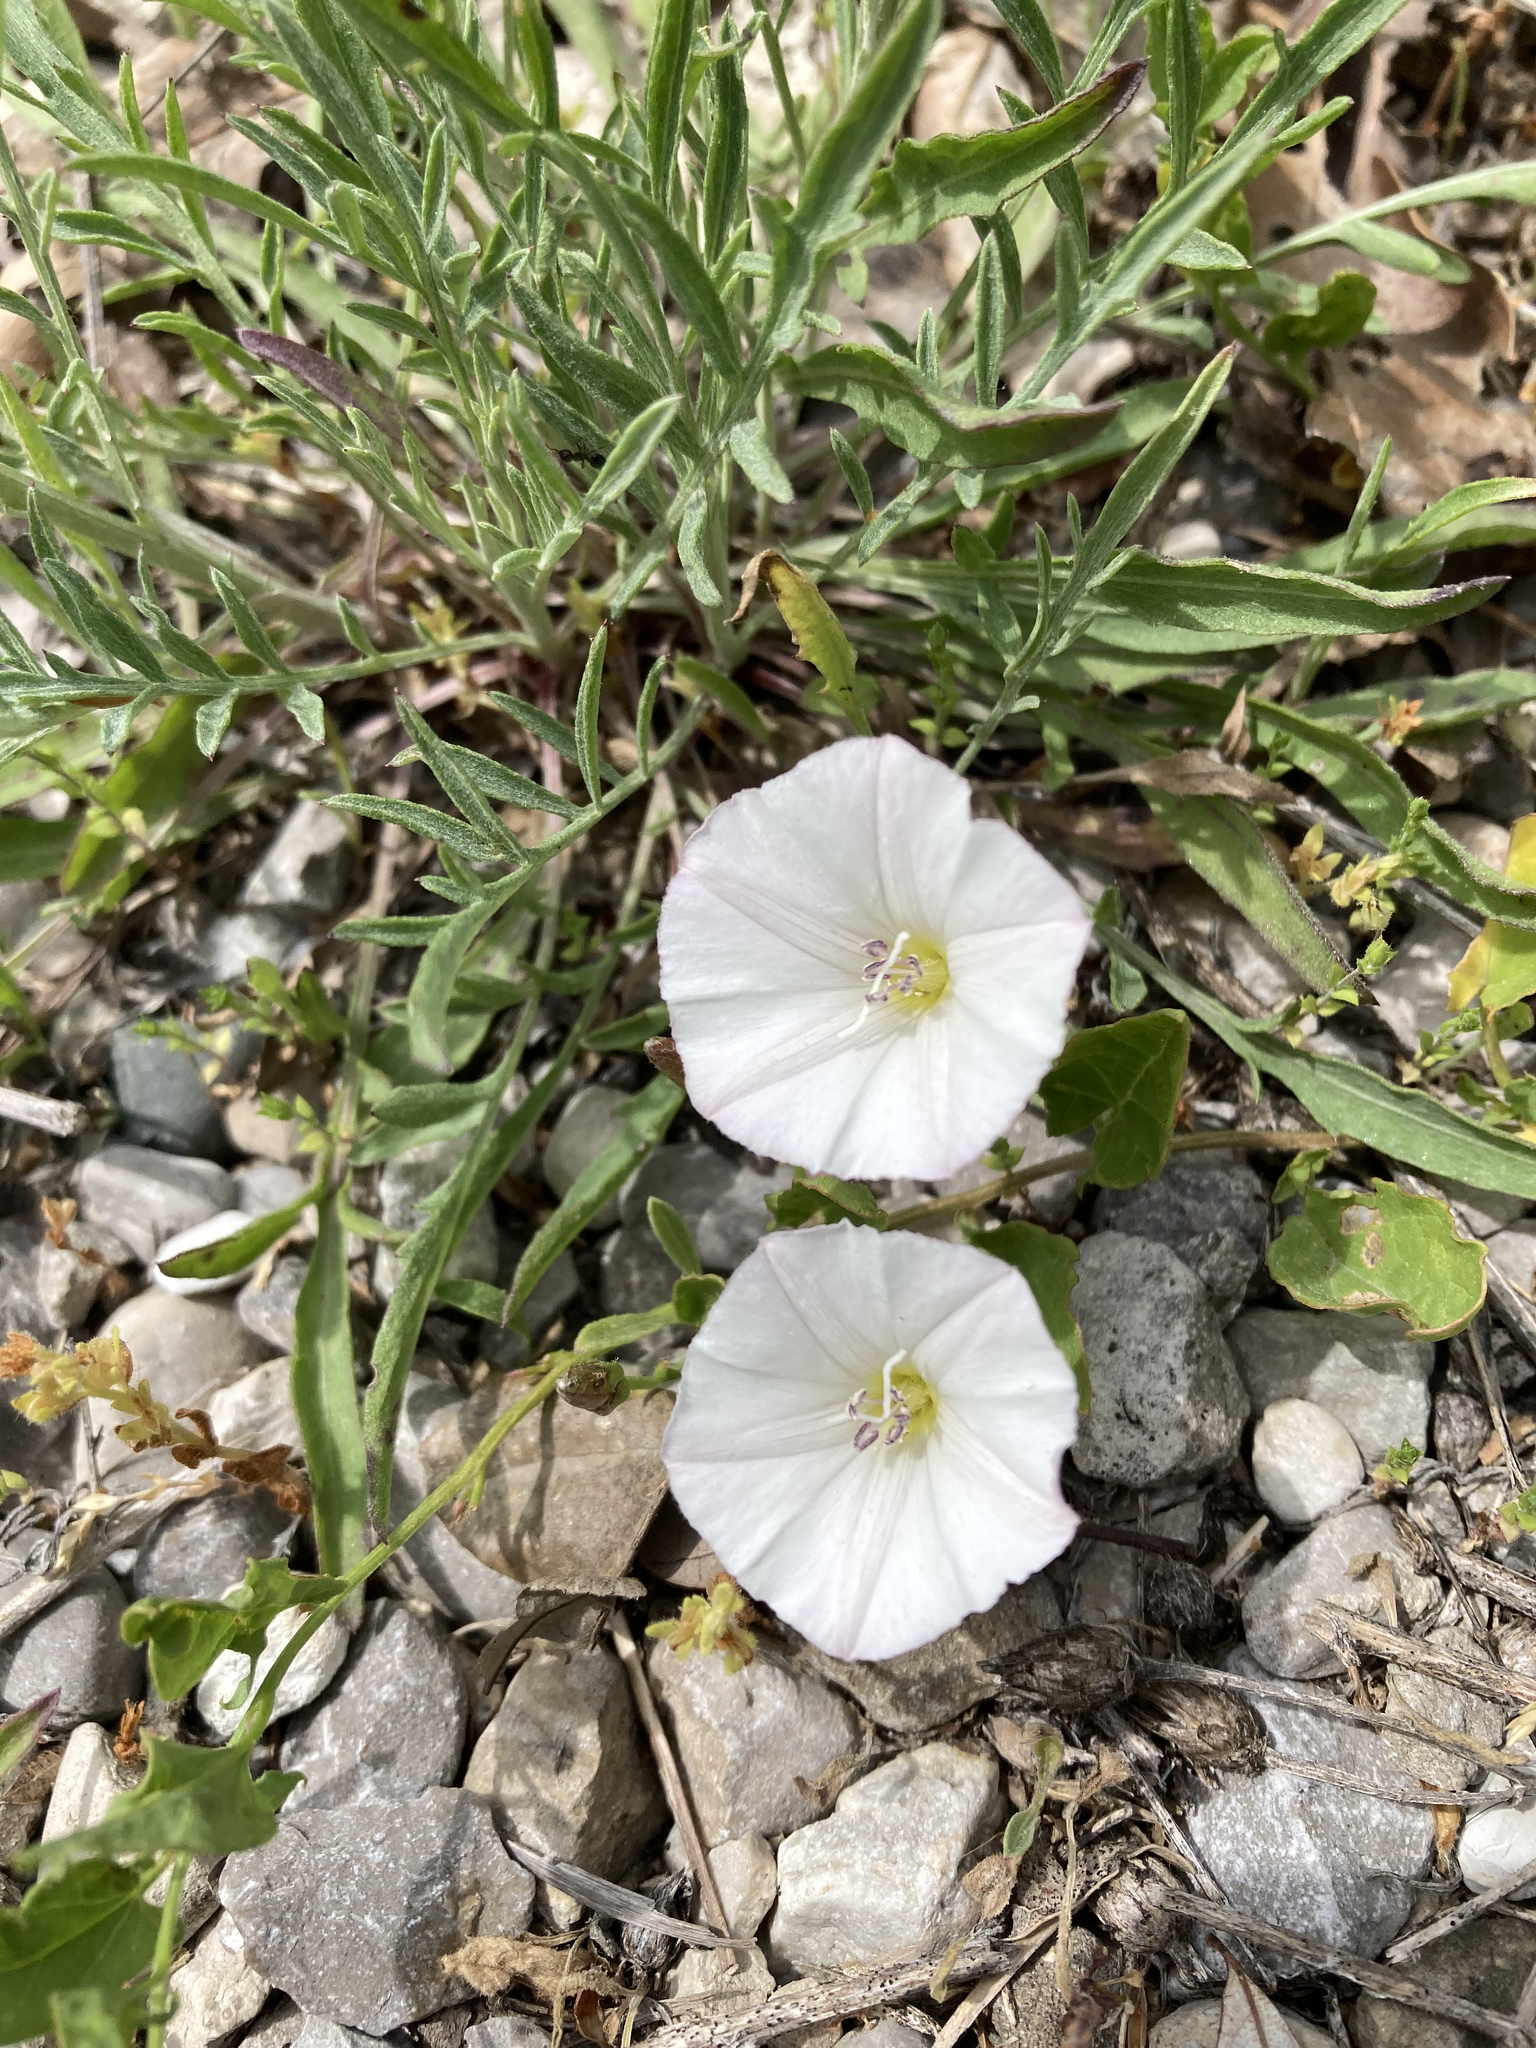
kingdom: Plantae
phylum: Tracheophyta
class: Magnoliopsida
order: Solanales
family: Convolvulaceae
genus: Convolvulus
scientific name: Convolvulus arvensis
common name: Field bindweed
